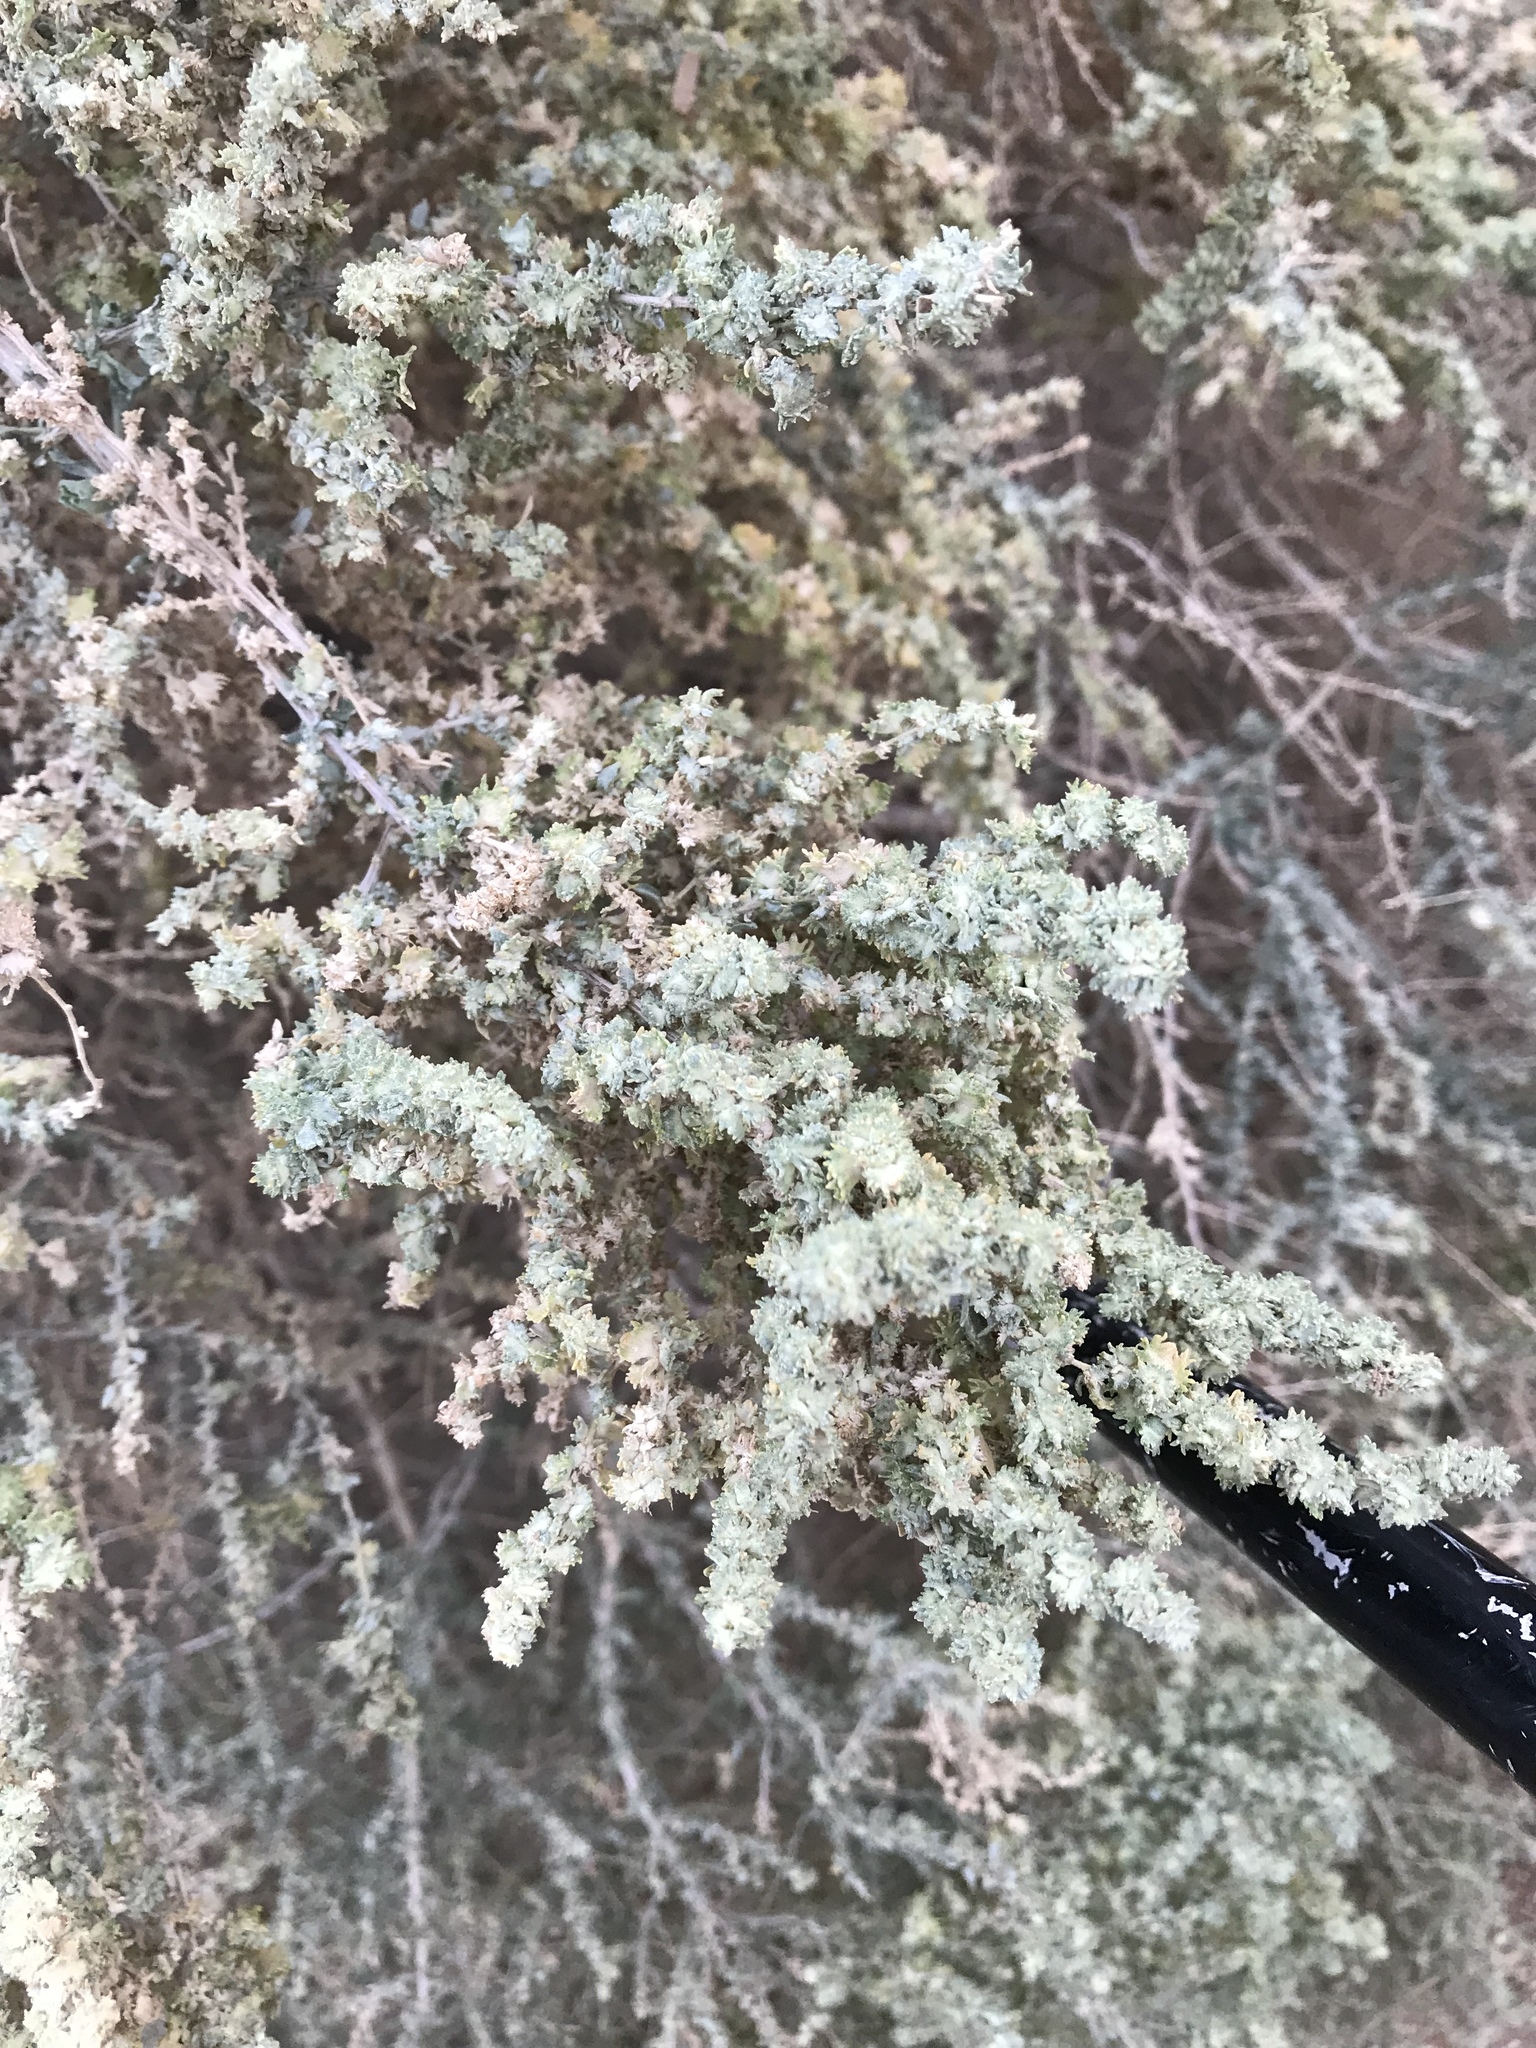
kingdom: Plantae
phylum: Tracheophyta
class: Magnoliopsida
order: Caryophyllales
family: Amaranthaceae
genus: Atriplex
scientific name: Atriplex polycarpa
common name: Desert saltbush
